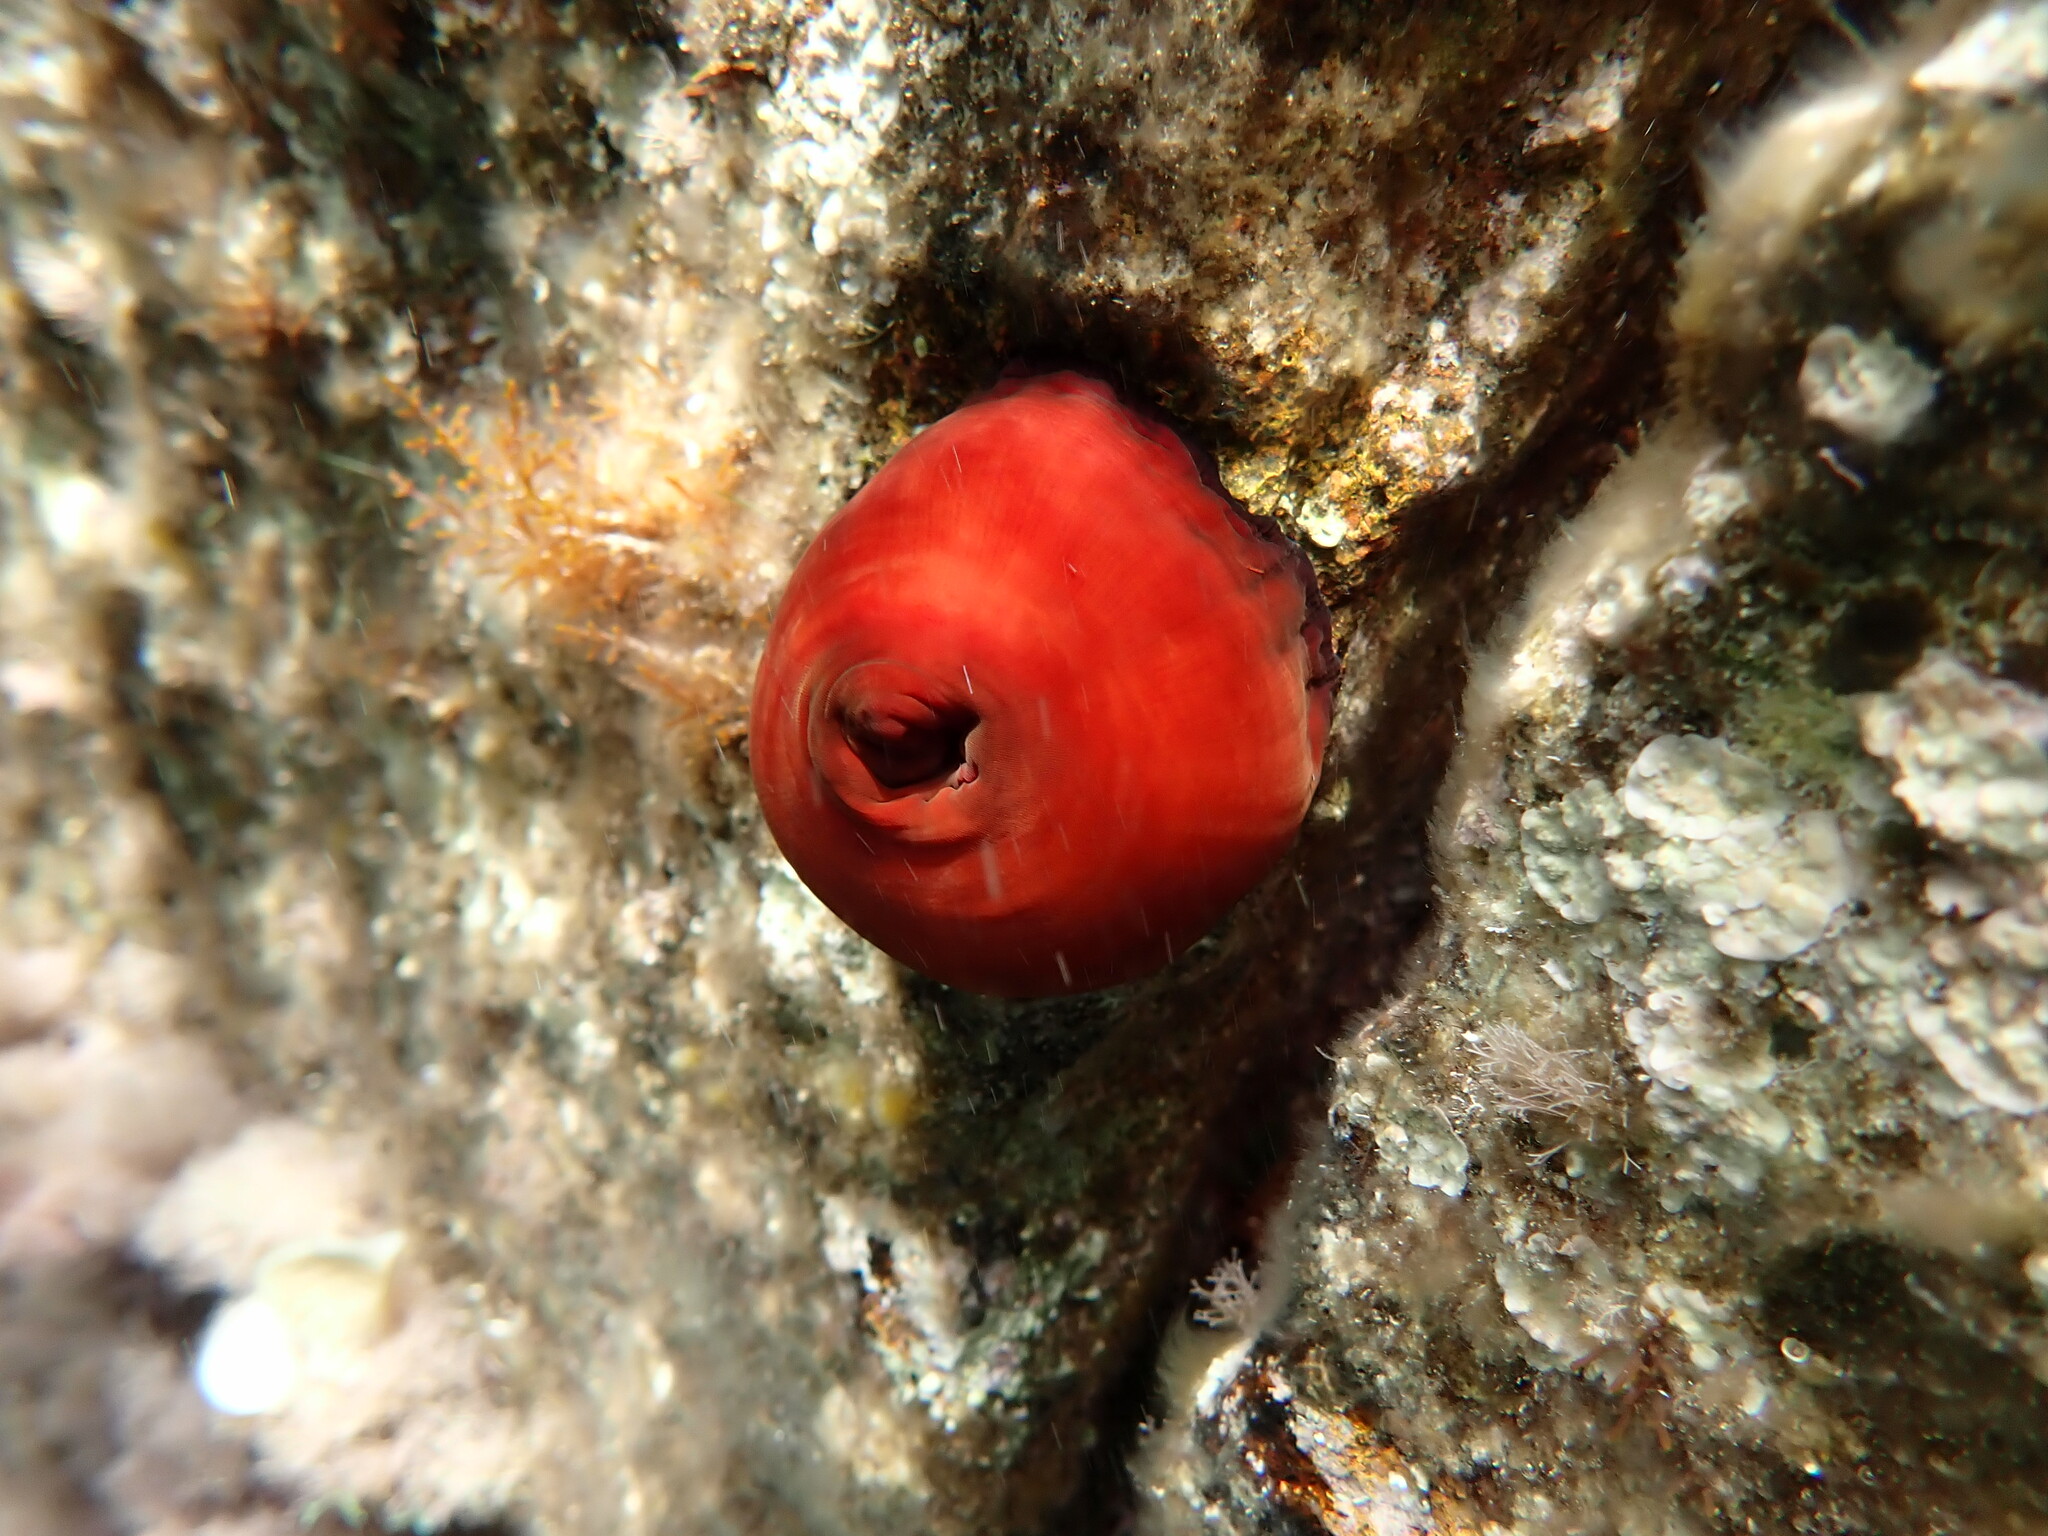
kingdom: Animalia
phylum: Cnidaria
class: Anthozoa
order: Actiniaria
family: Actiniidae
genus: Actinia
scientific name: Actinia mediterranea
